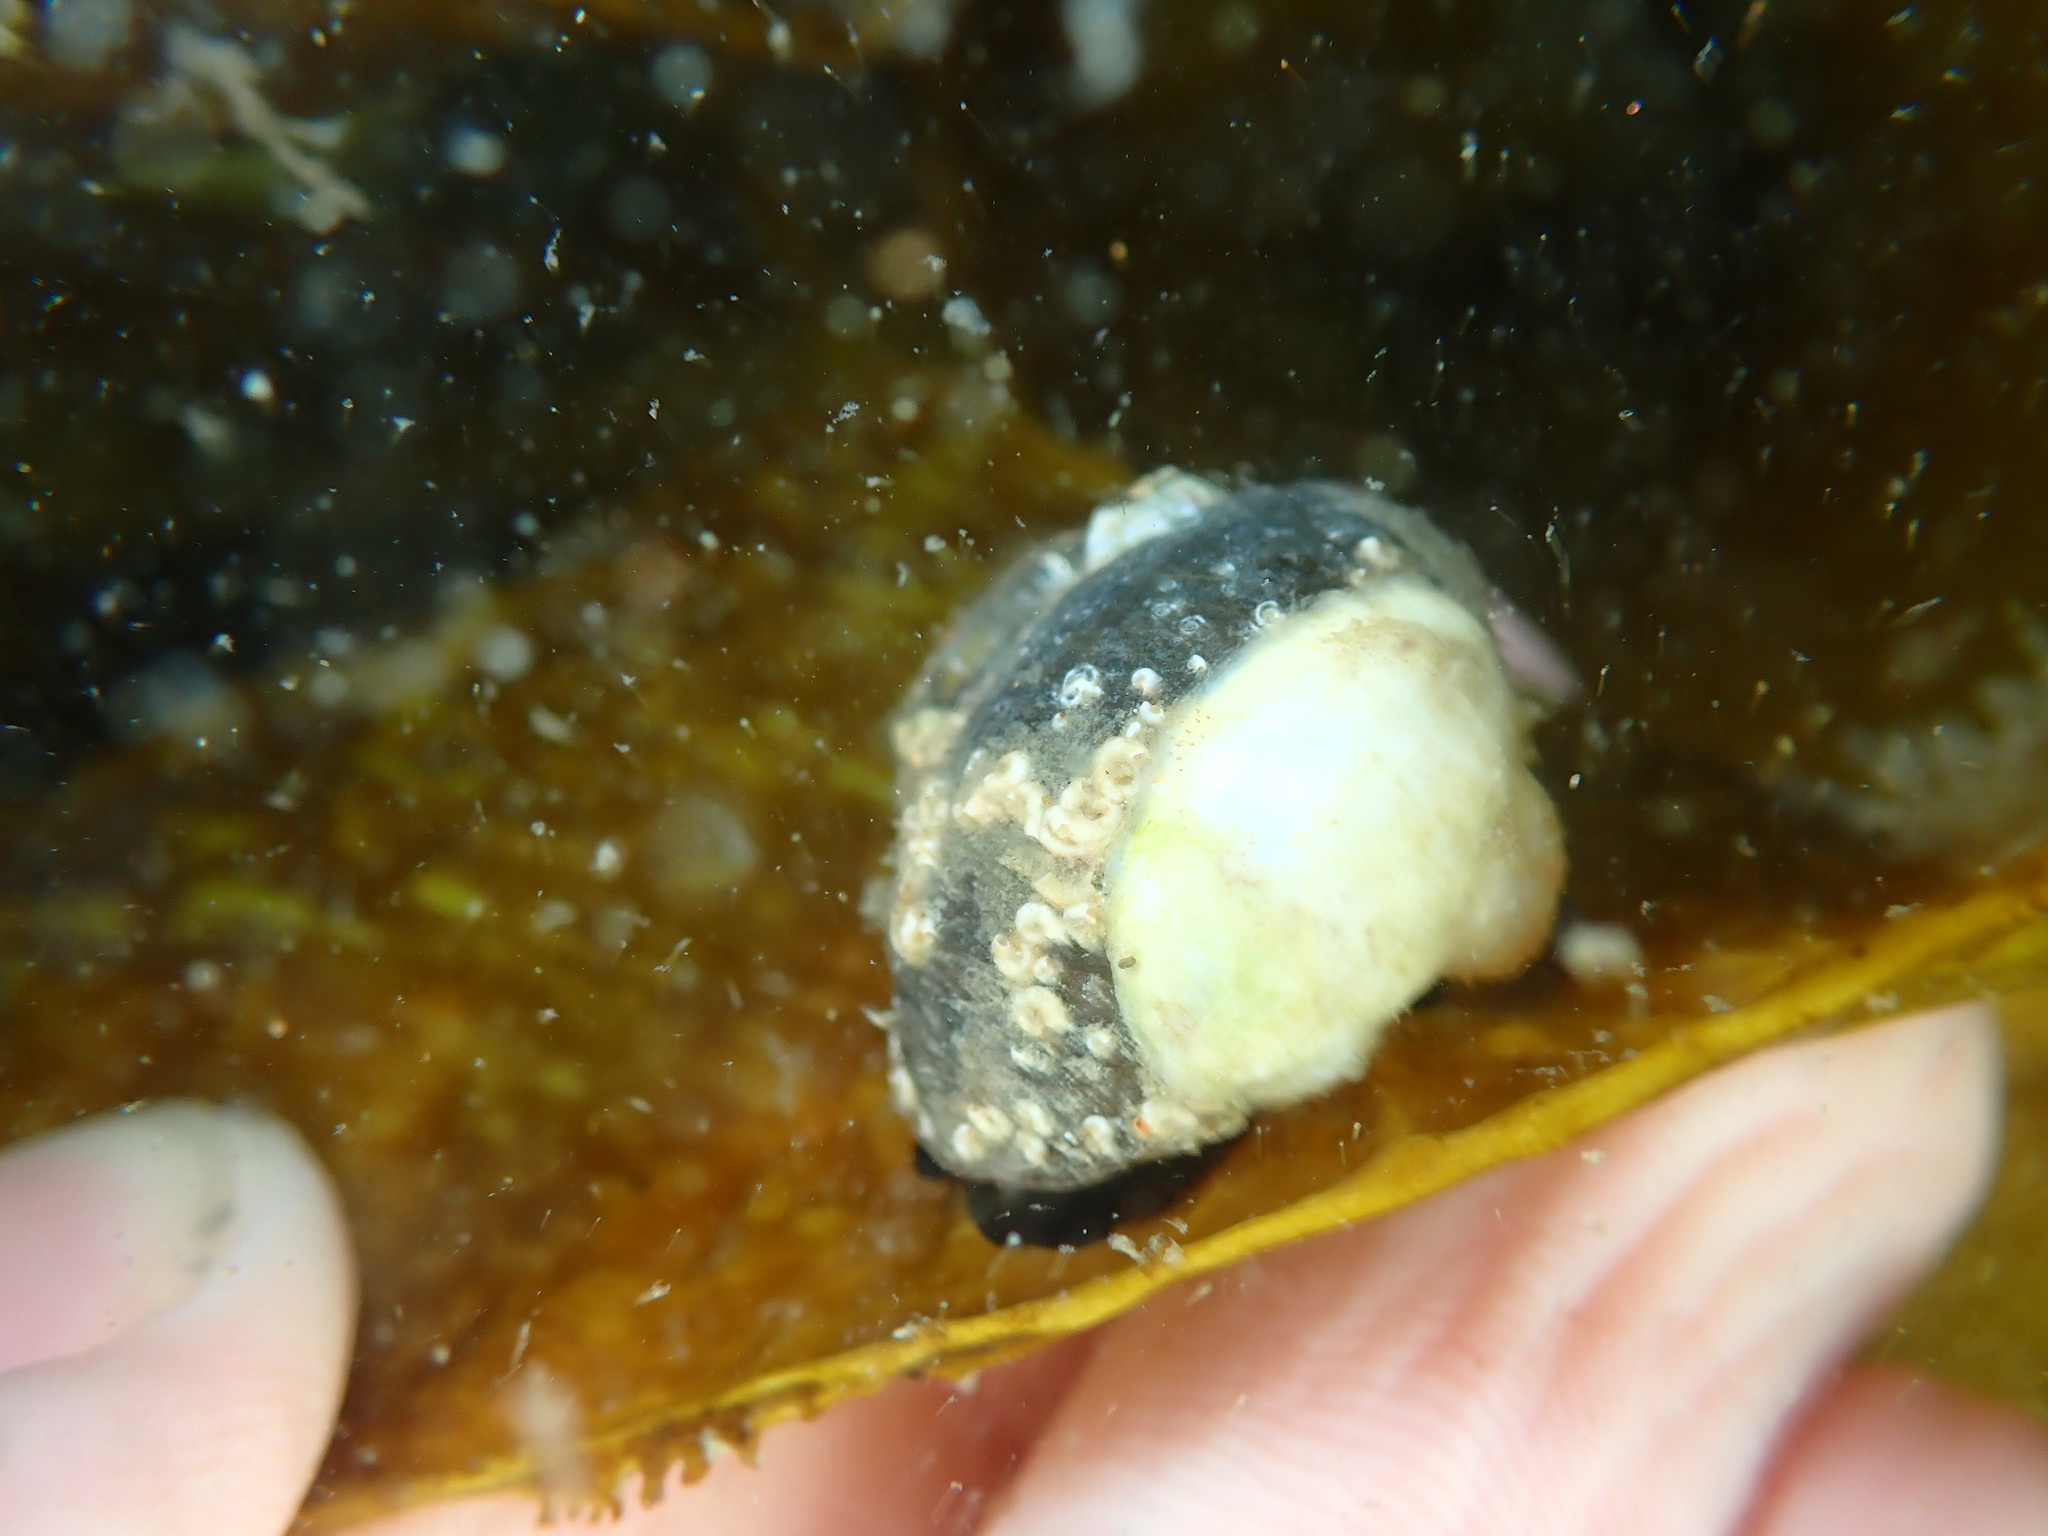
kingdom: Animalia
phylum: Mollusca
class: Gastropoda
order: Littorinimorpha
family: Calyptraeidae
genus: Maoricrypta
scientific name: Maoricrypta monoxyla
